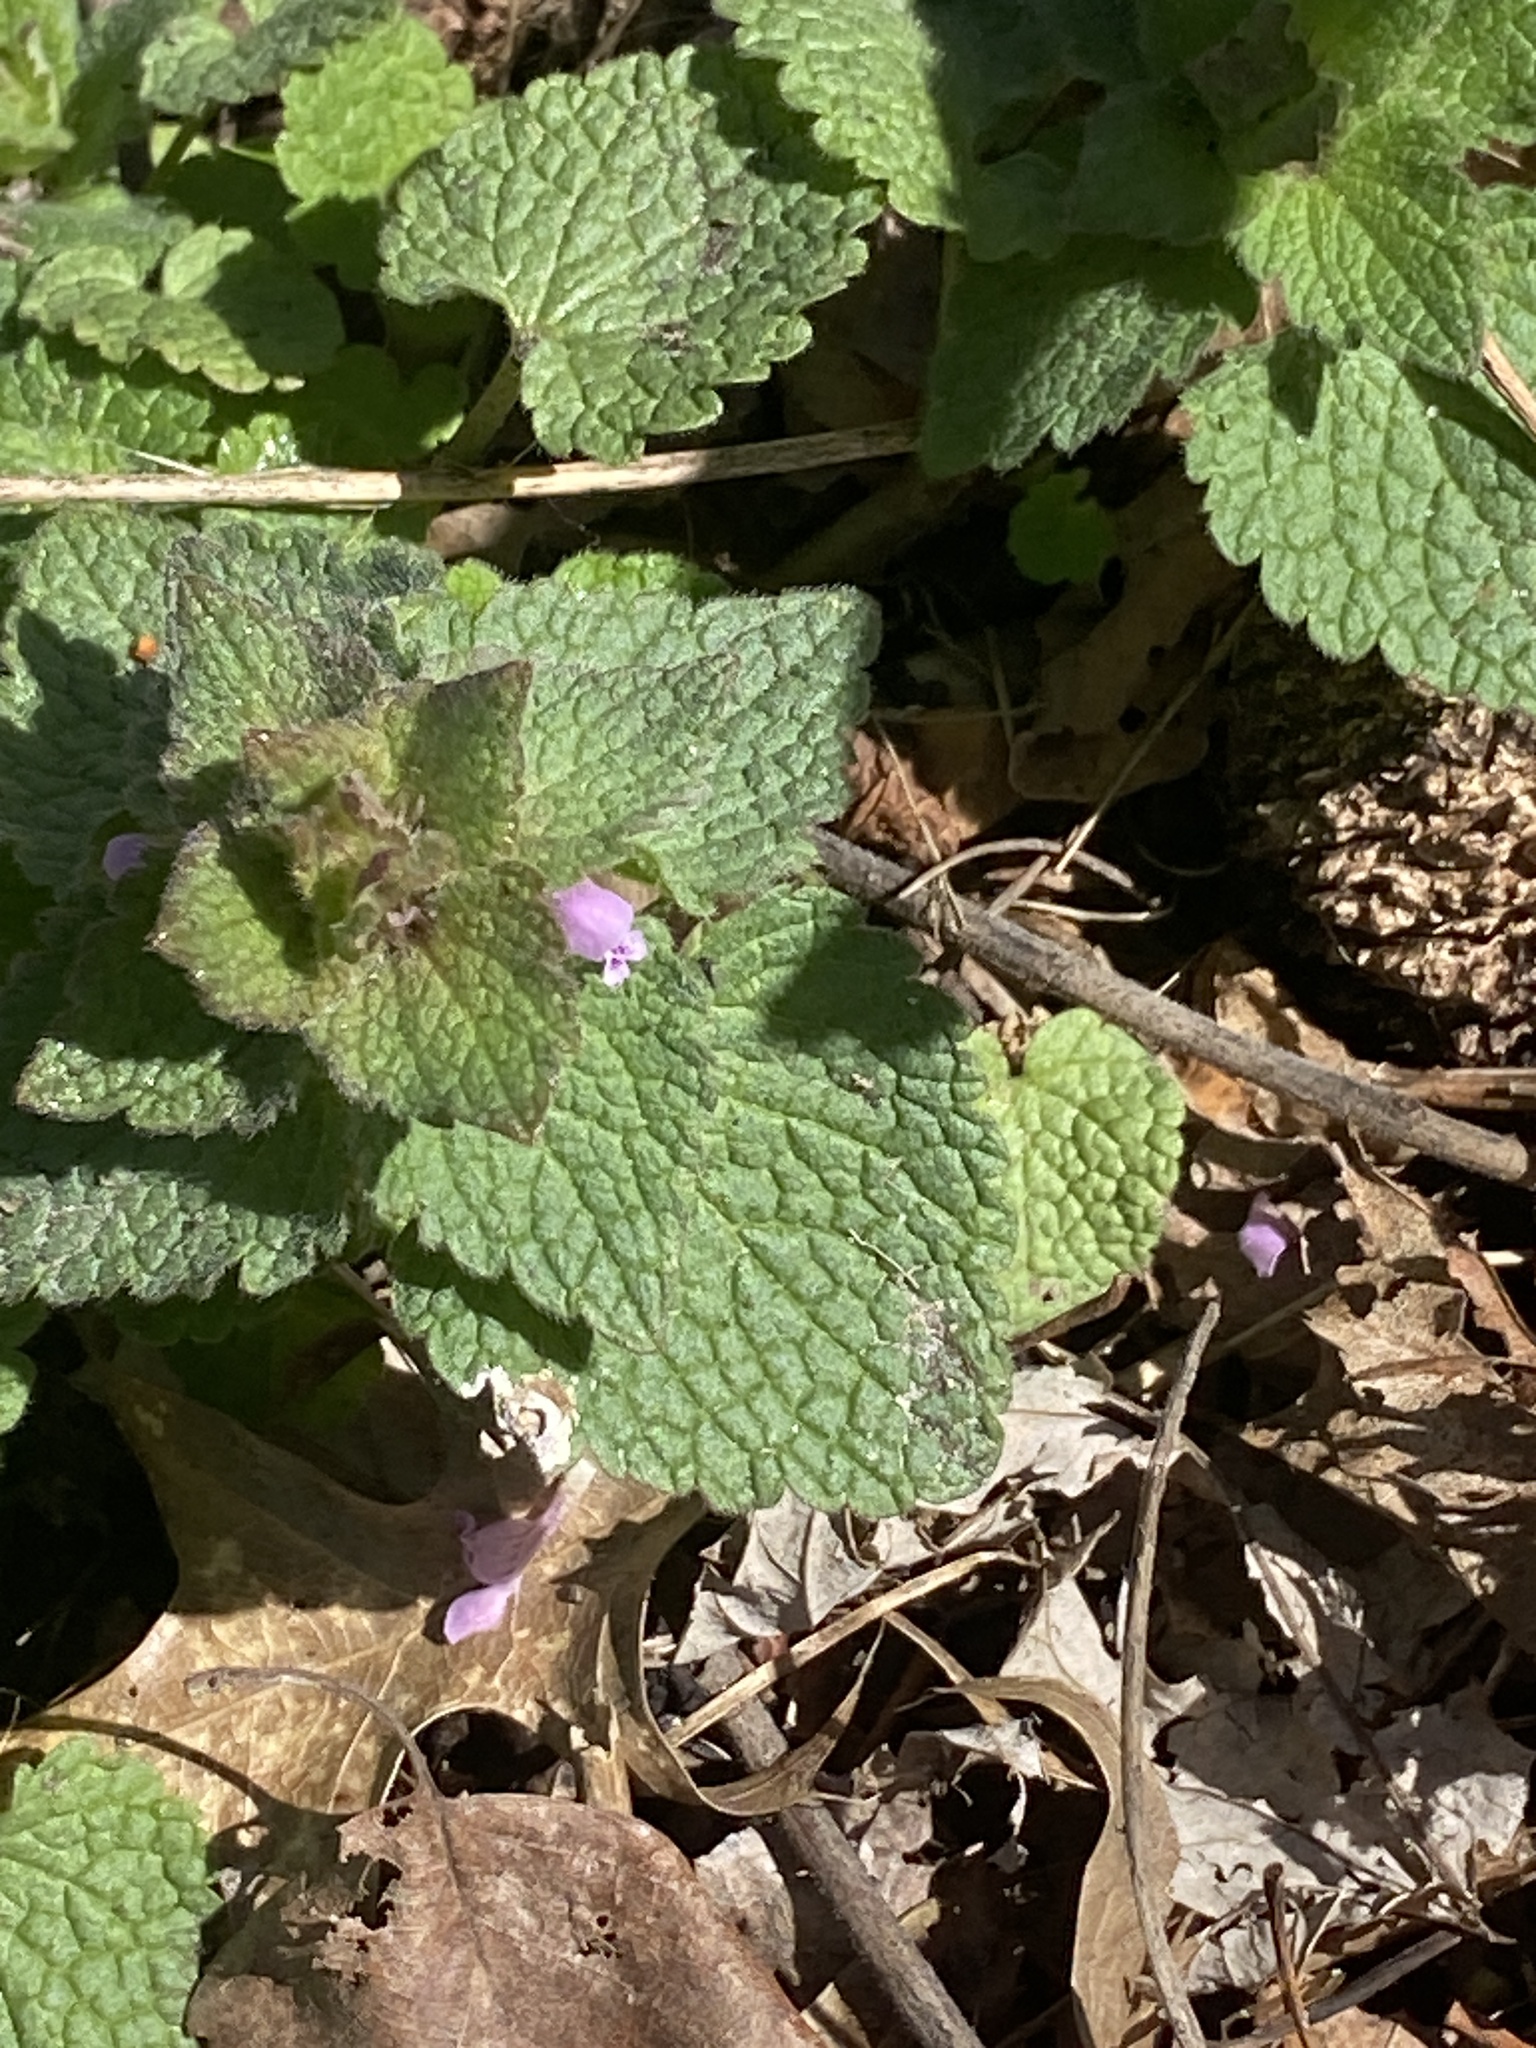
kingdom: Plantae
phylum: Tracheophyta
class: Magnoliopsida
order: Lamiales
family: Lamiaceae
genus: Lamium
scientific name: Lamium purpureum
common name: Red dead-nettle
